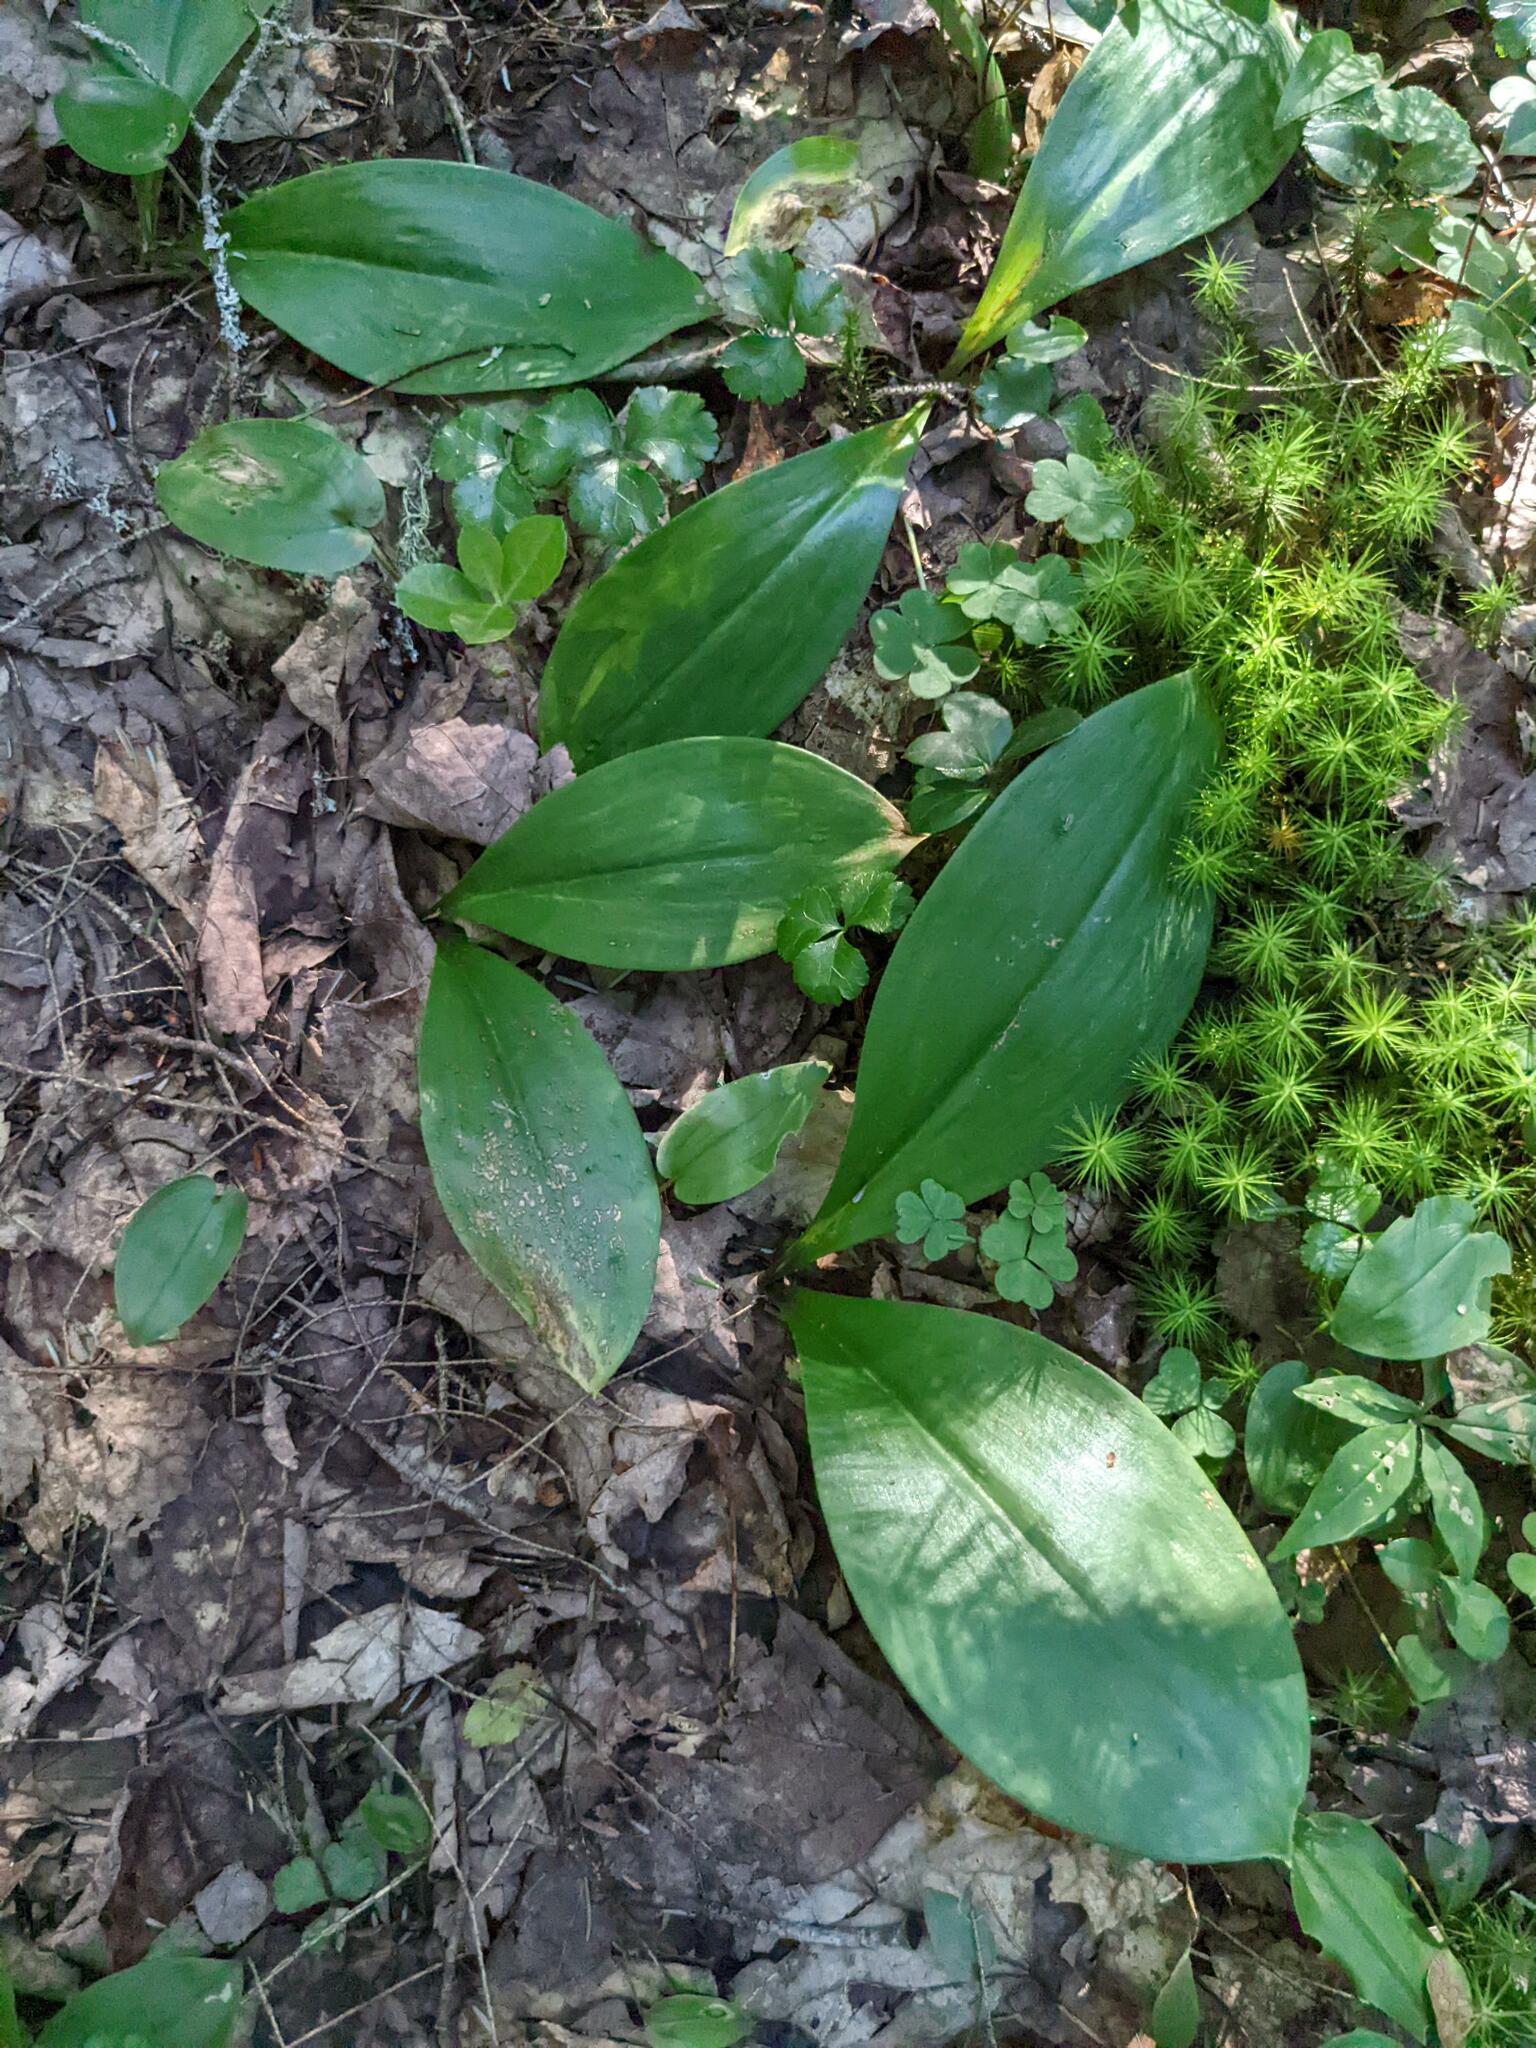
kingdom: Plantae
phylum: Tracheophyta
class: Liliopsida
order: Liliales
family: Liliaceae
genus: Clintonia
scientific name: Clintonia borealis
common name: Yellow clintonia
